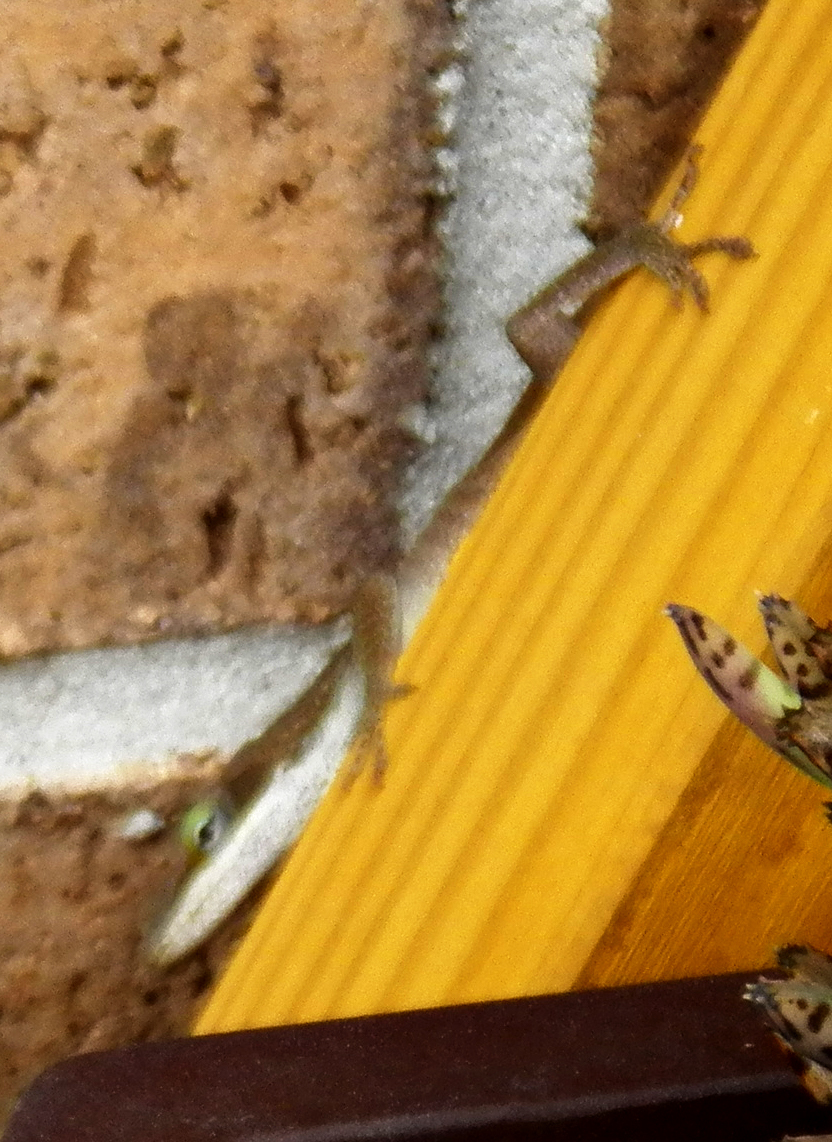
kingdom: Animalia
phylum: Chordata
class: Squamata
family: Dactyloidae
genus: Anolis
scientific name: Anolis carolinensis
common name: Green anole
